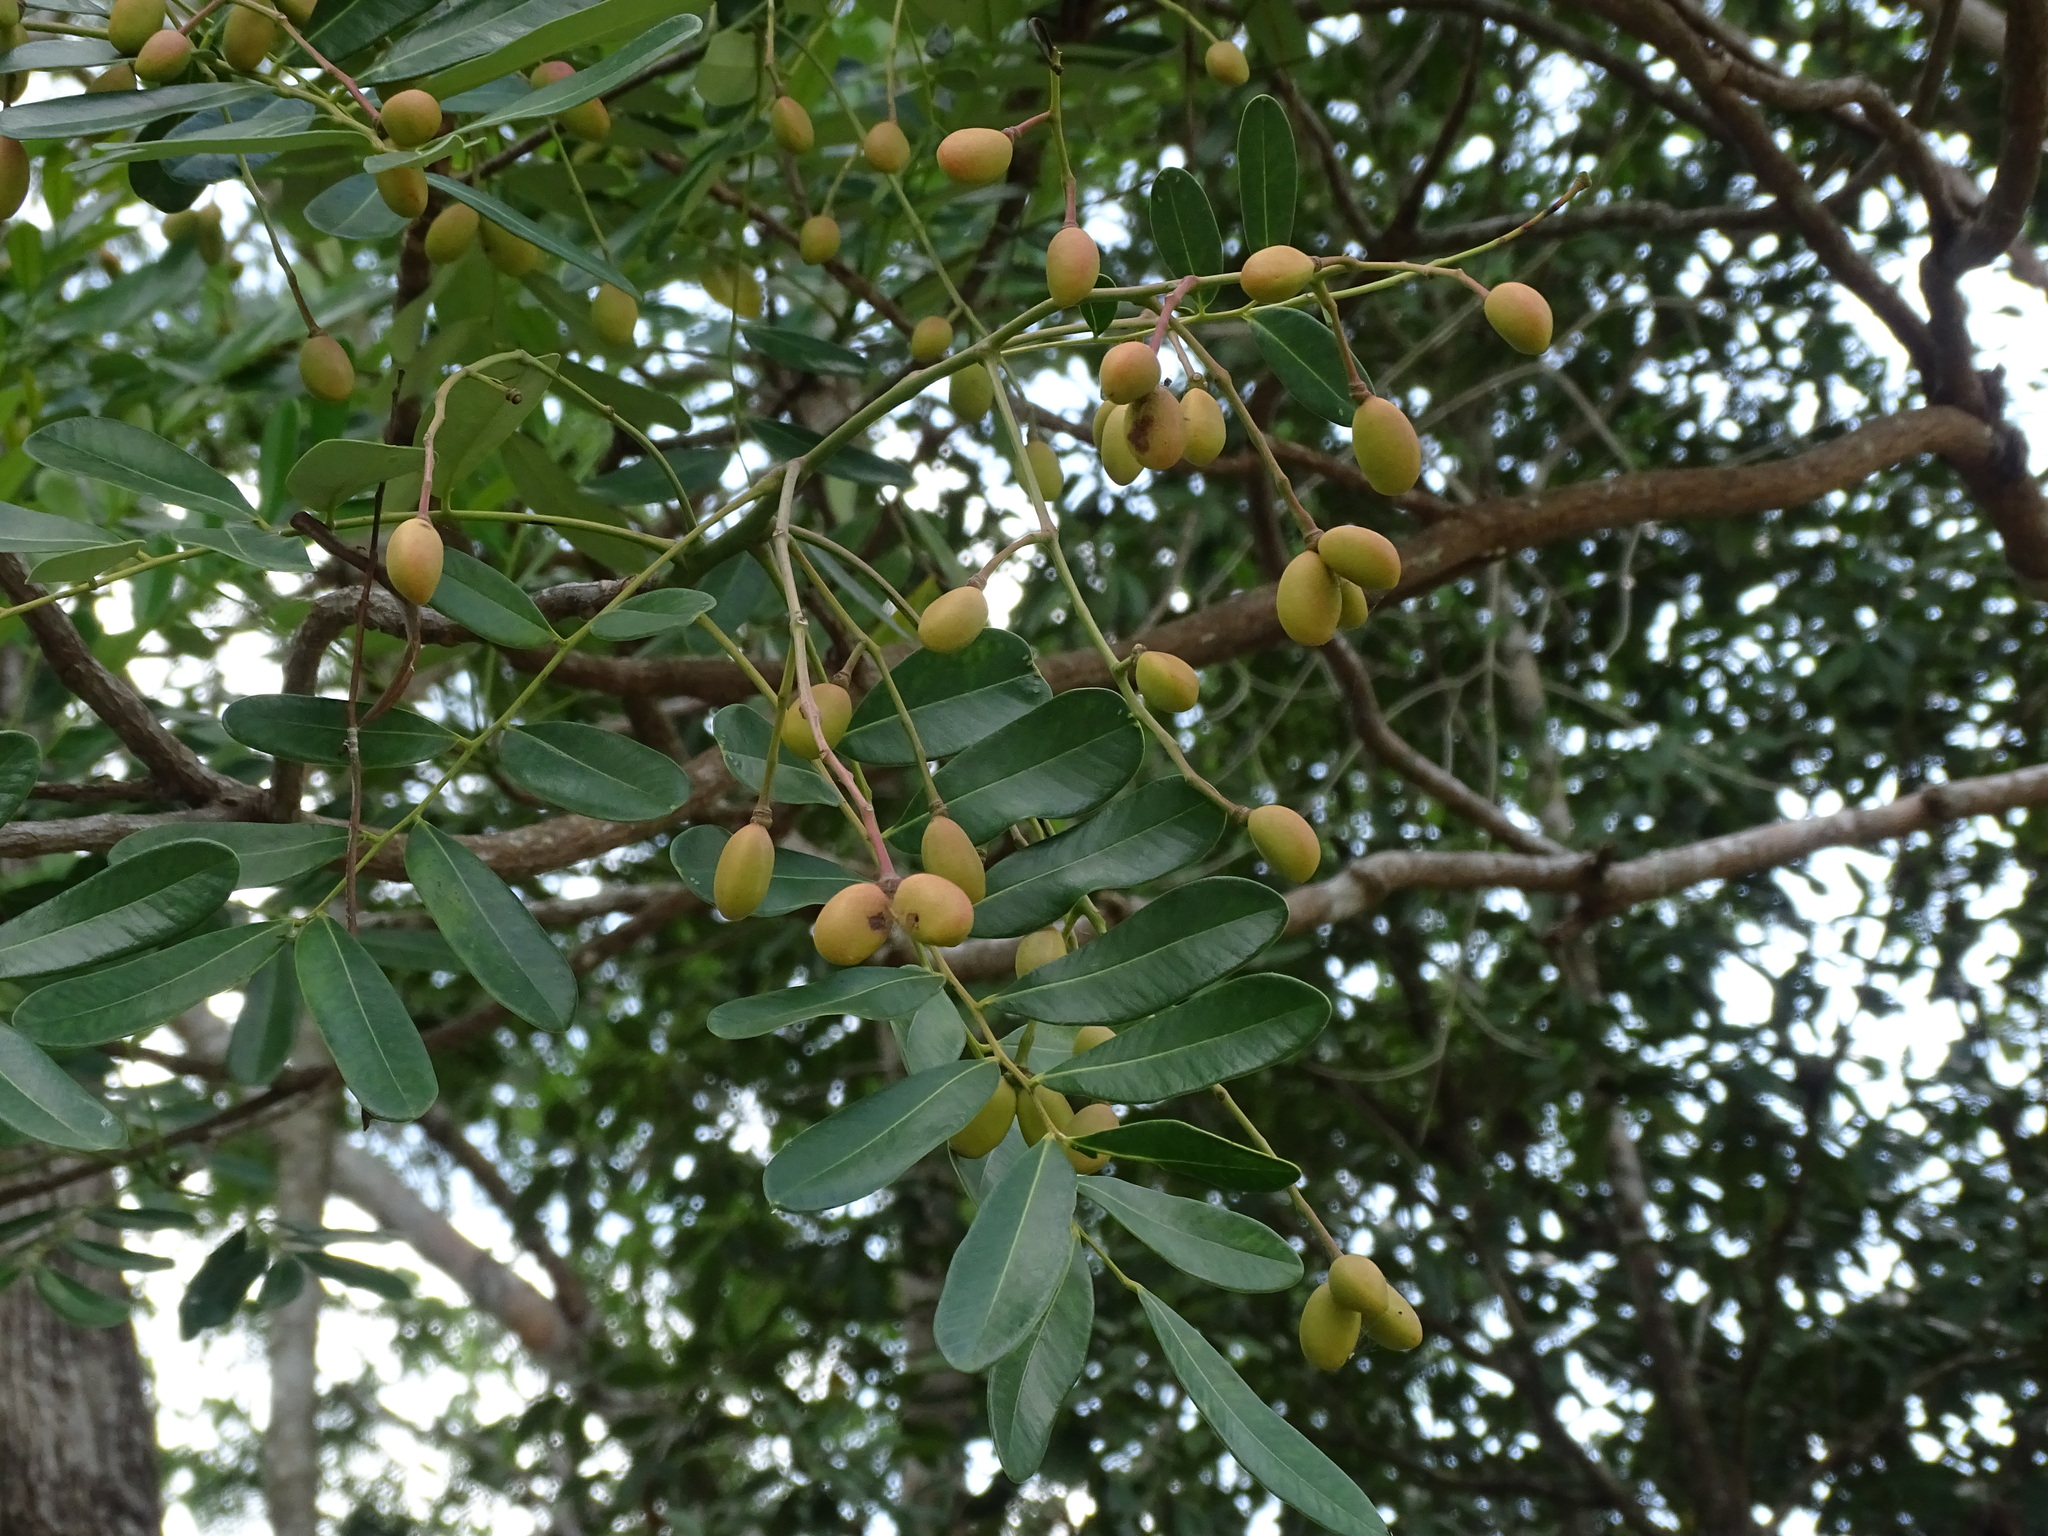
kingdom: Plantae
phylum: Tracheophyta
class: Magnoliopsida
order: Sapindales
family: Simaroubaceae
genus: Simarouba
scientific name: Simarouba glauca
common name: Dysentery-bark
